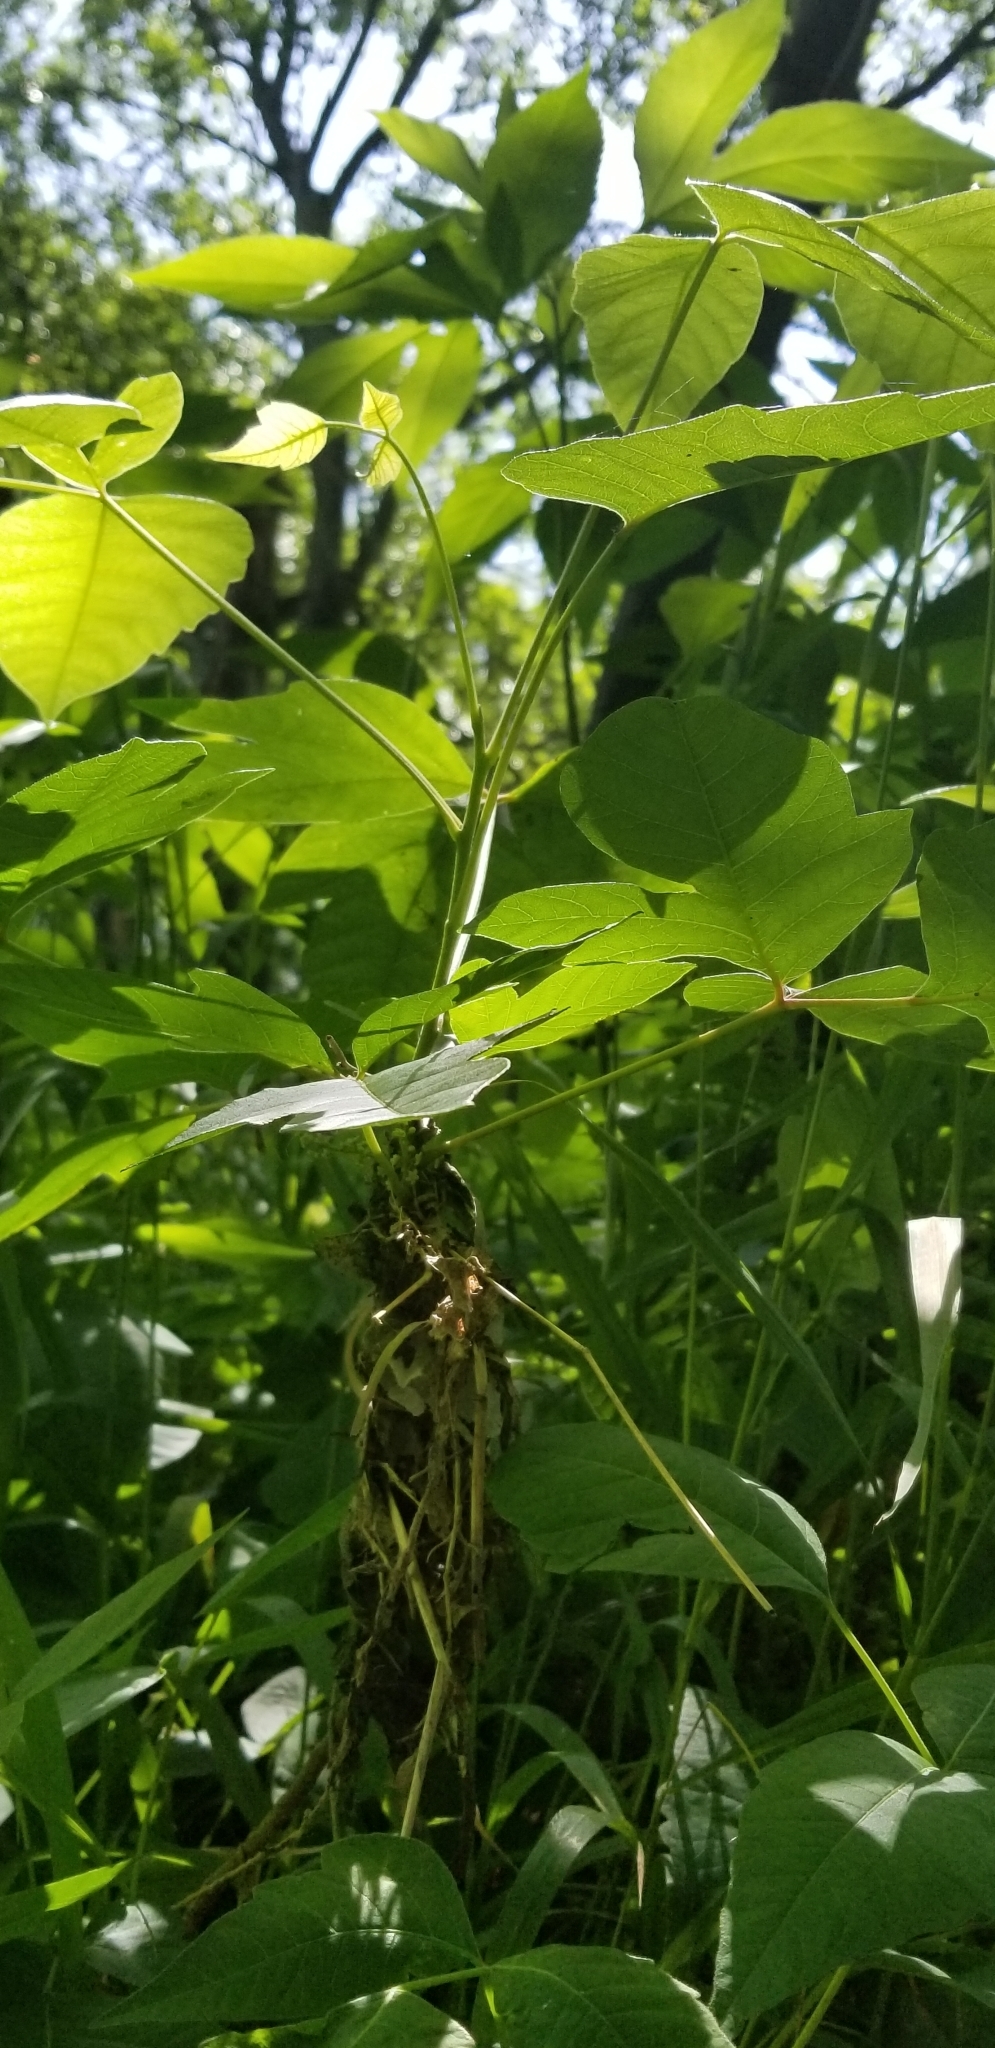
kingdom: Plantae
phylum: Tracheophyta
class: Magnoliopsida
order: Sapindales
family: Sapindaceae
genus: Acer
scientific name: Acer negundo
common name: Ashleaf maple
